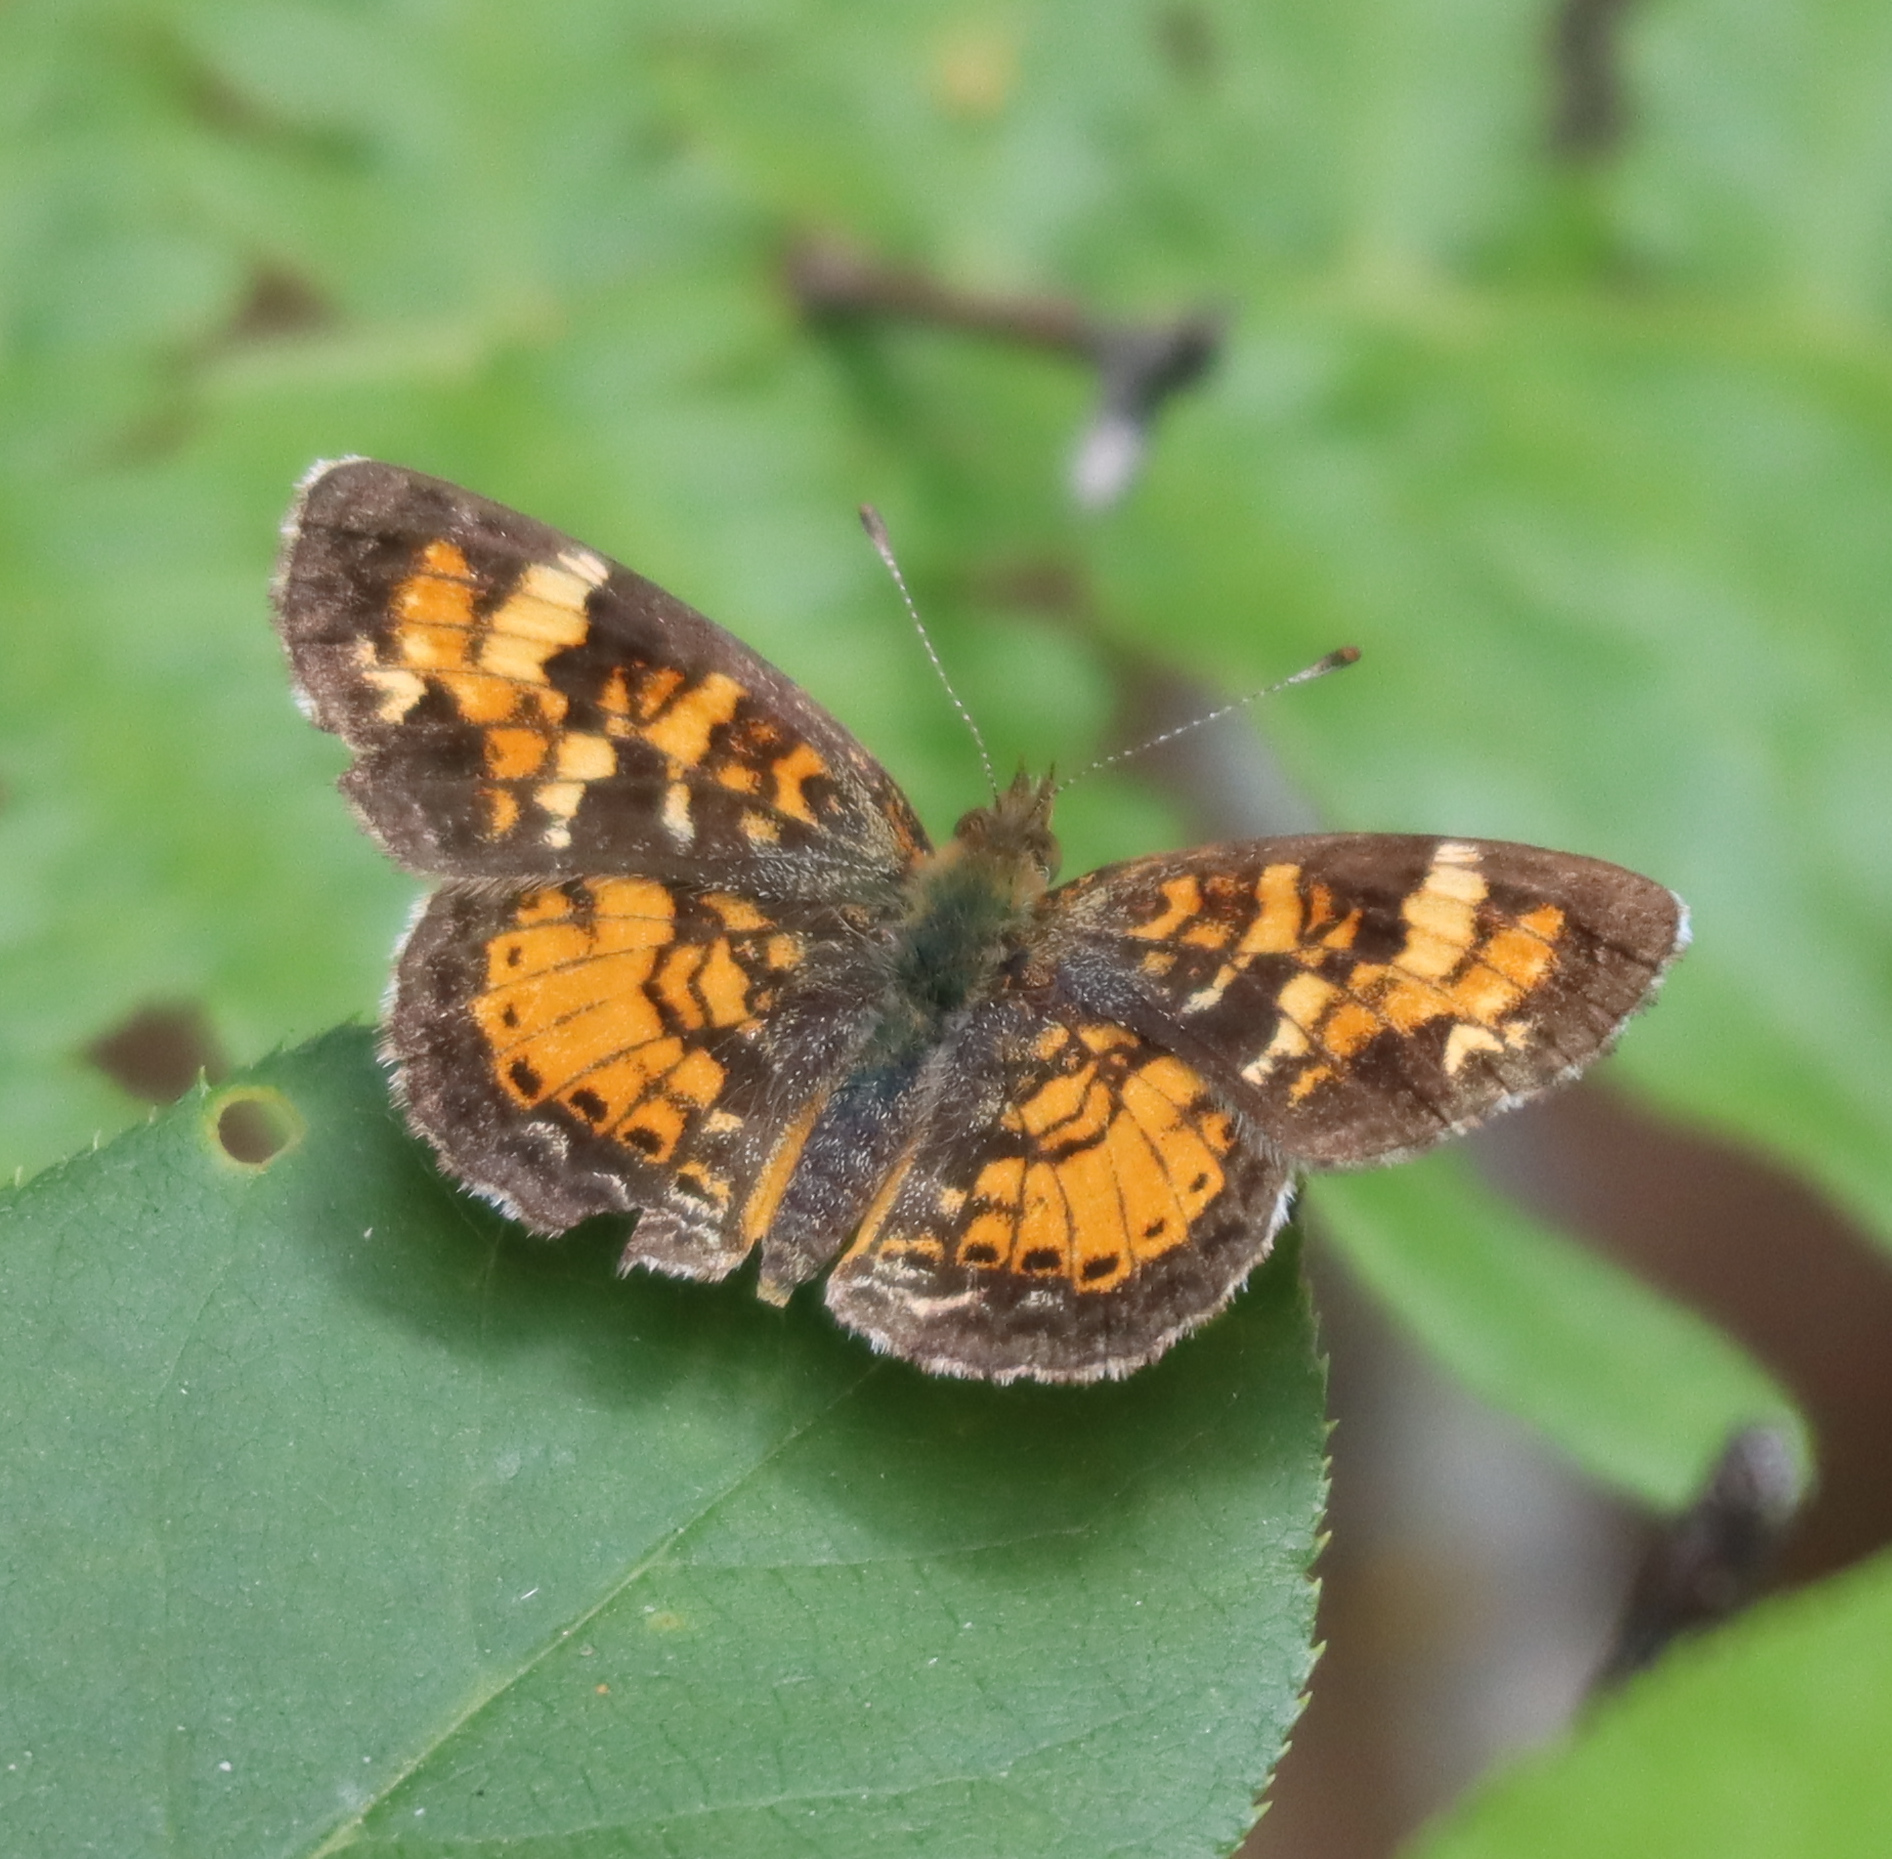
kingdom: Animalia
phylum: Arthropoda
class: Insecta
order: Lepidoptera
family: Nymphalidae
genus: Phyciodes
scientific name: Phyciodes tharos
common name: Pearl crescent
